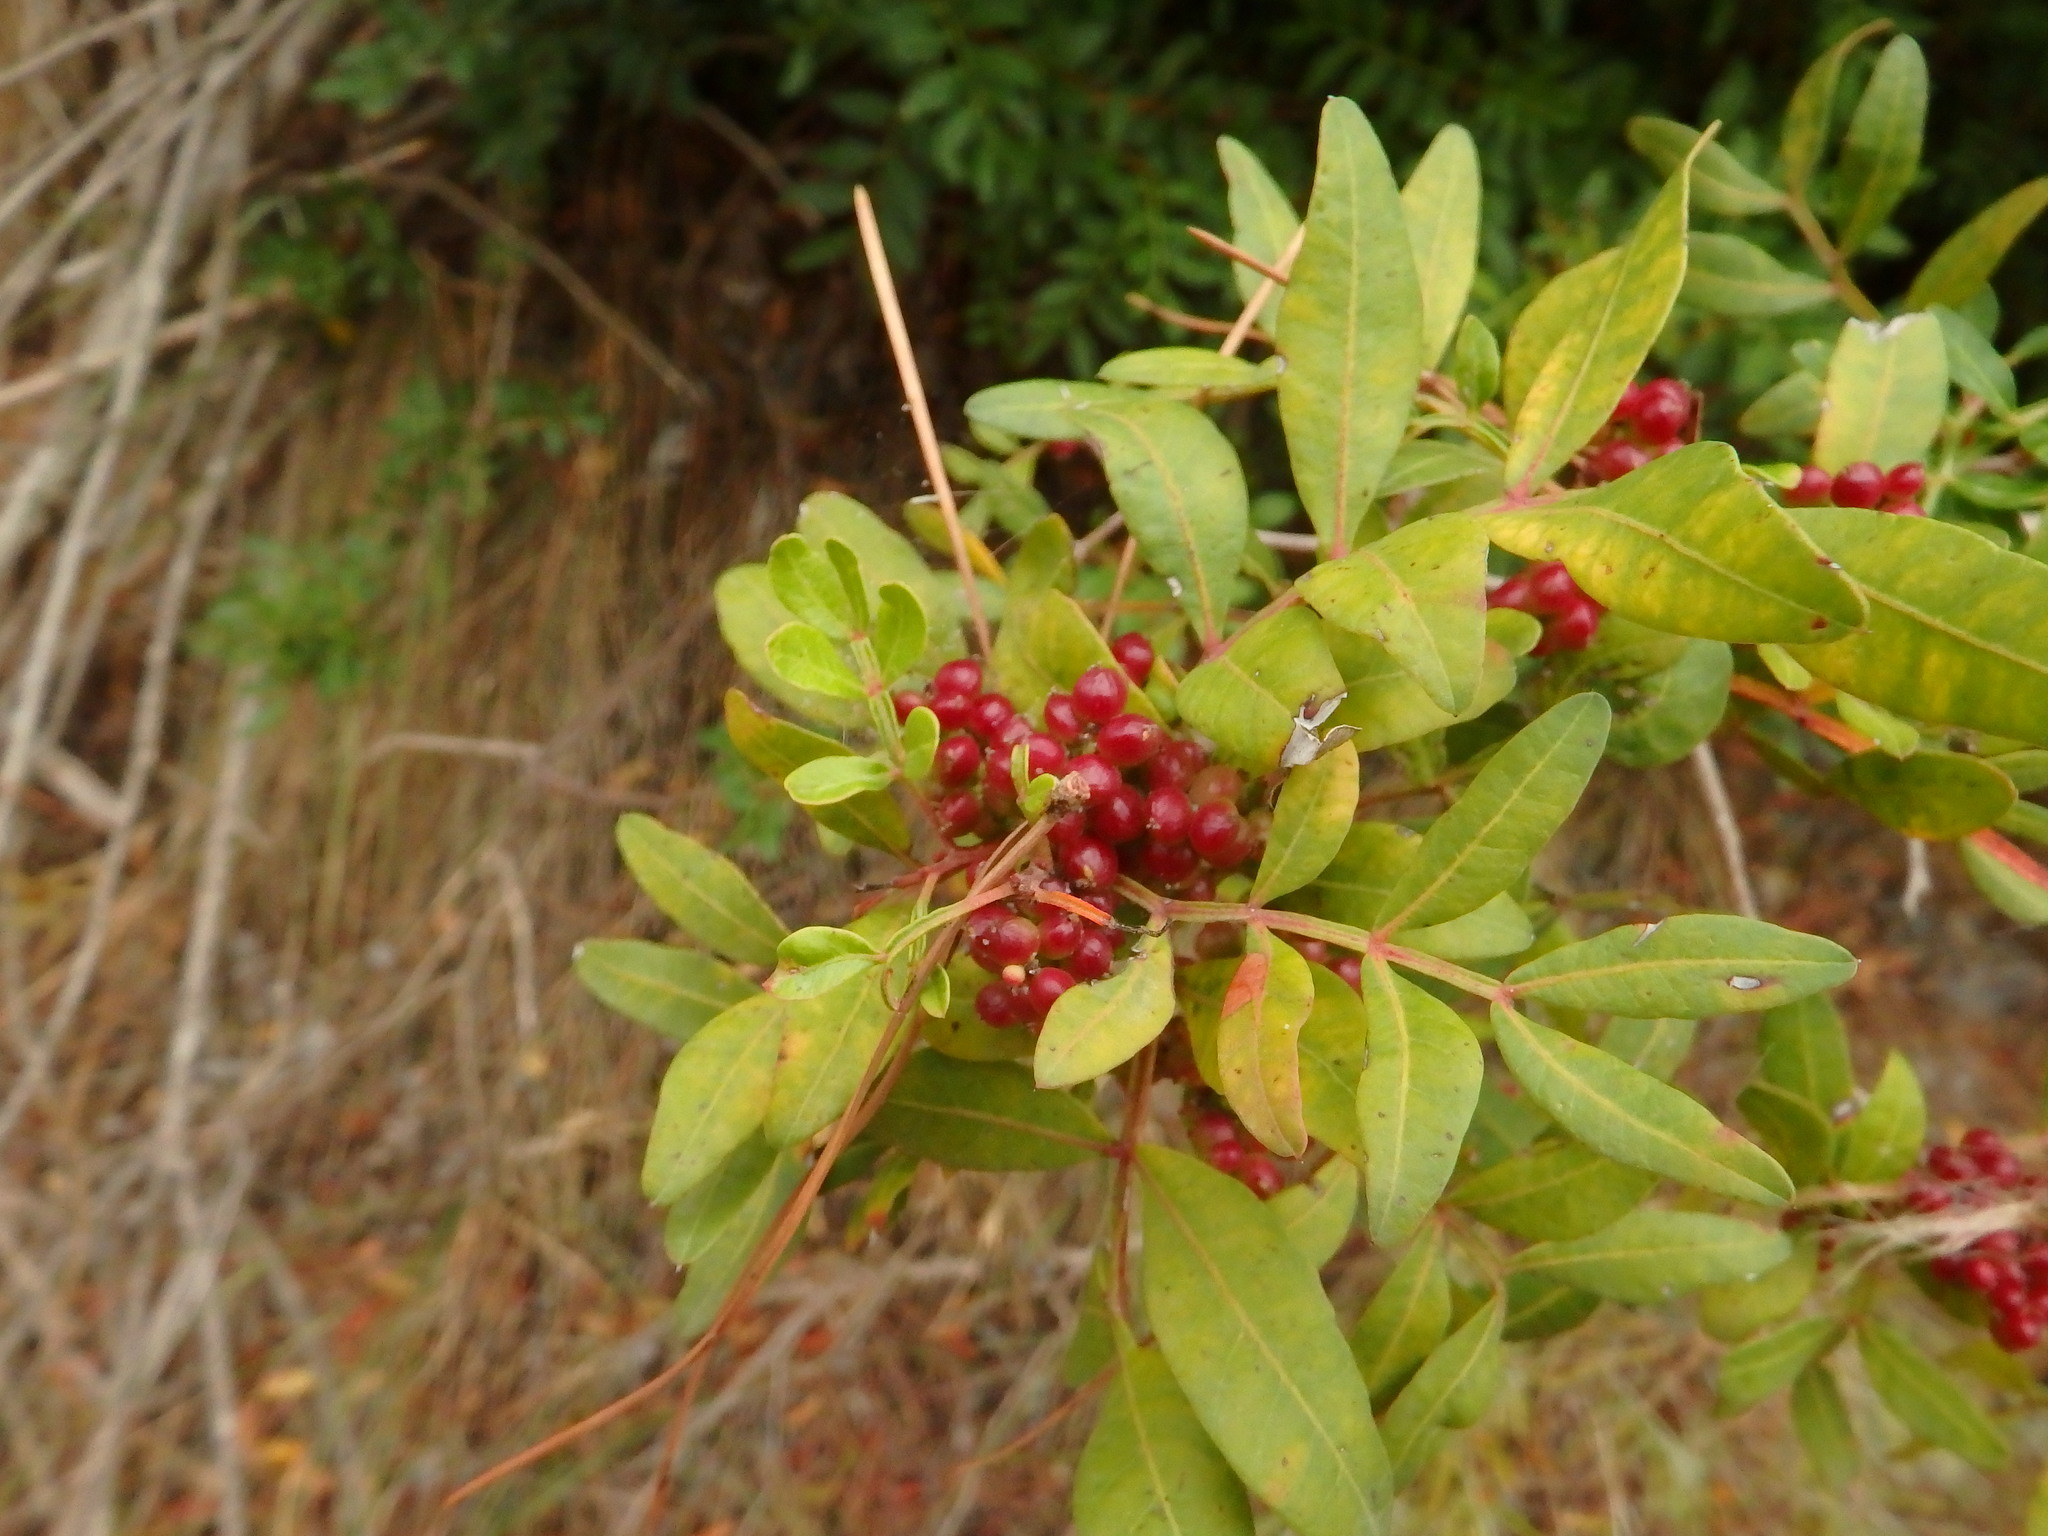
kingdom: Plantae
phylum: Tracheophyta
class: Magnoliopsida
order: Sapindales
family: Anacardiaceae
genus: Pistacia
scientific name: Pistacia lentiscus
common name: Lentisk
